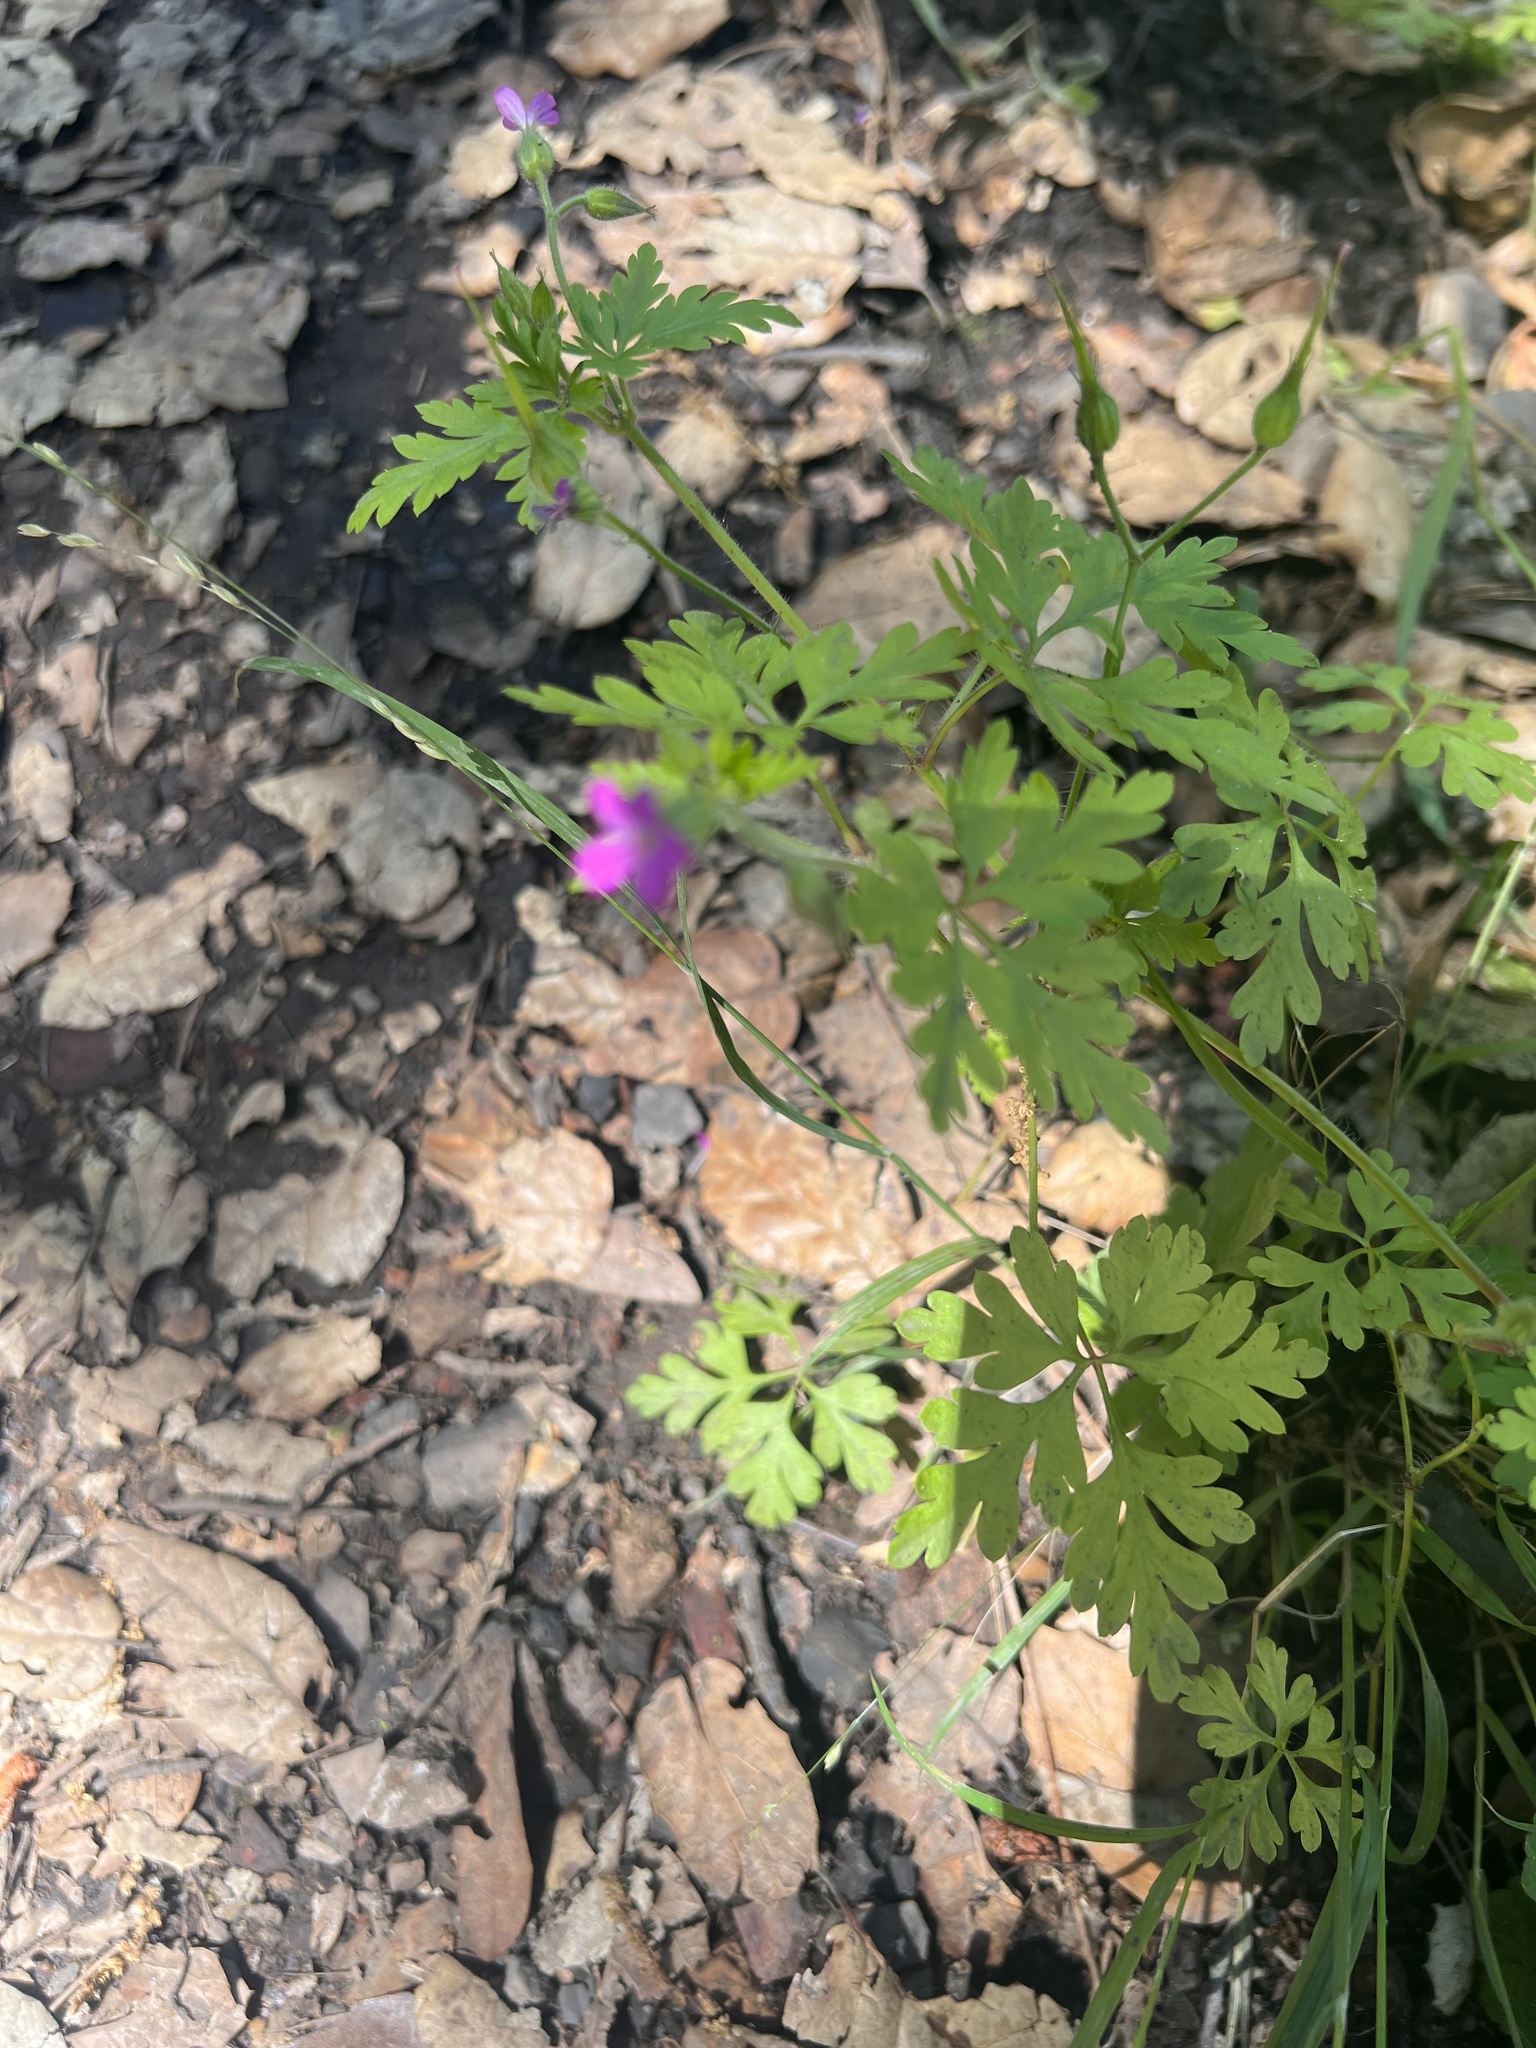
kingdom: Plantae
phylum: Tracheophyta
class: Magnoliopsida
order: Geraniales
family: Geraniaceae
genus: Geranium
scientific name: Geranium purpureum
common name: Little-robin
